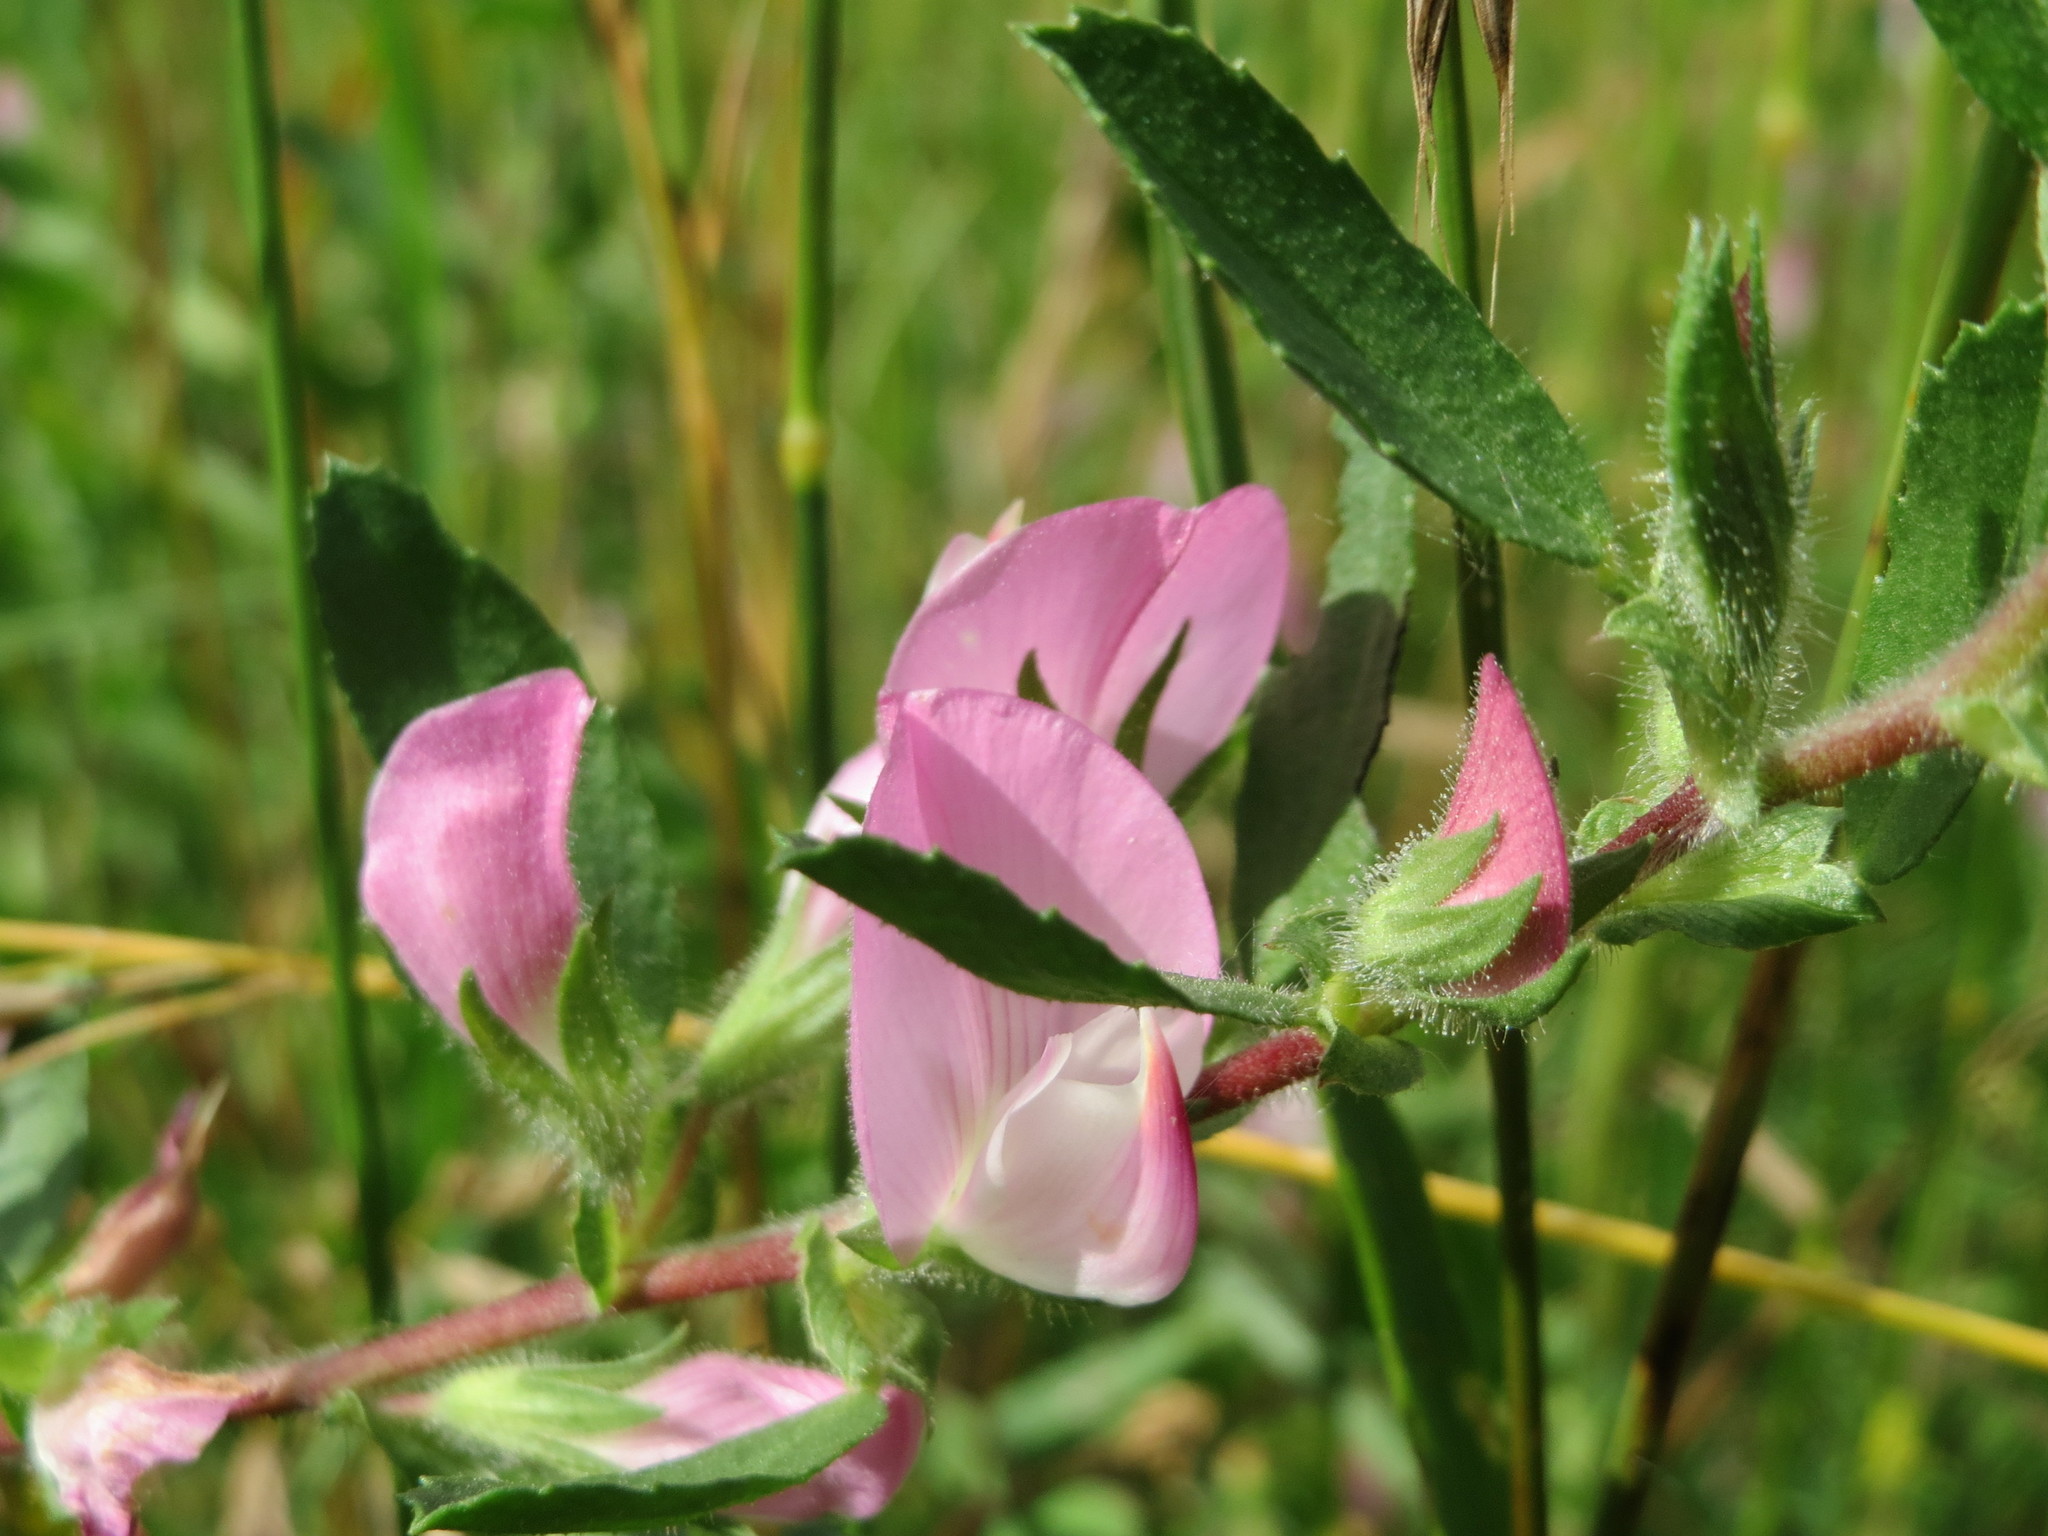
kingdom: Plantae
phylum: Tracheophyta
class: Magnoliopsida
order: Fabales
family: Fabaceae
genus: Ononis
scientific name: Ononis spinosa
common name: Spiny restharrow
